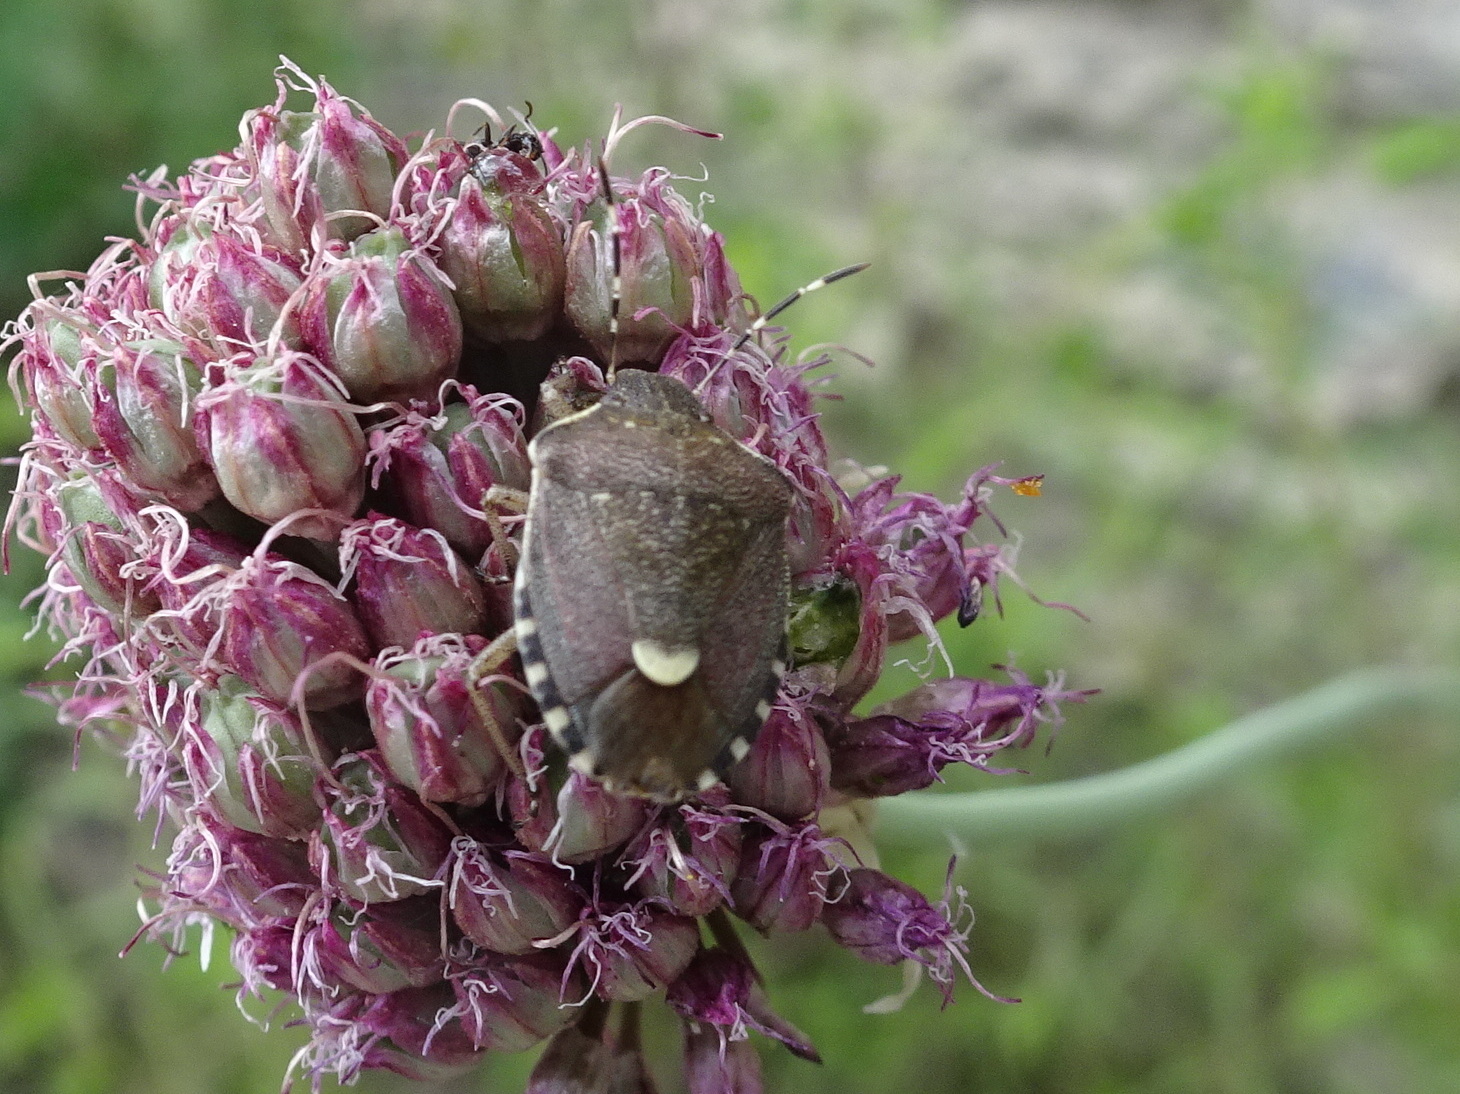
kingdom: Animalia
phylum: Arthropoda
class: Insecta
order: Hemiptera
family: Pentatomidae
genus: Holcostethus
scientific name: Holcostethus sphacelatus
